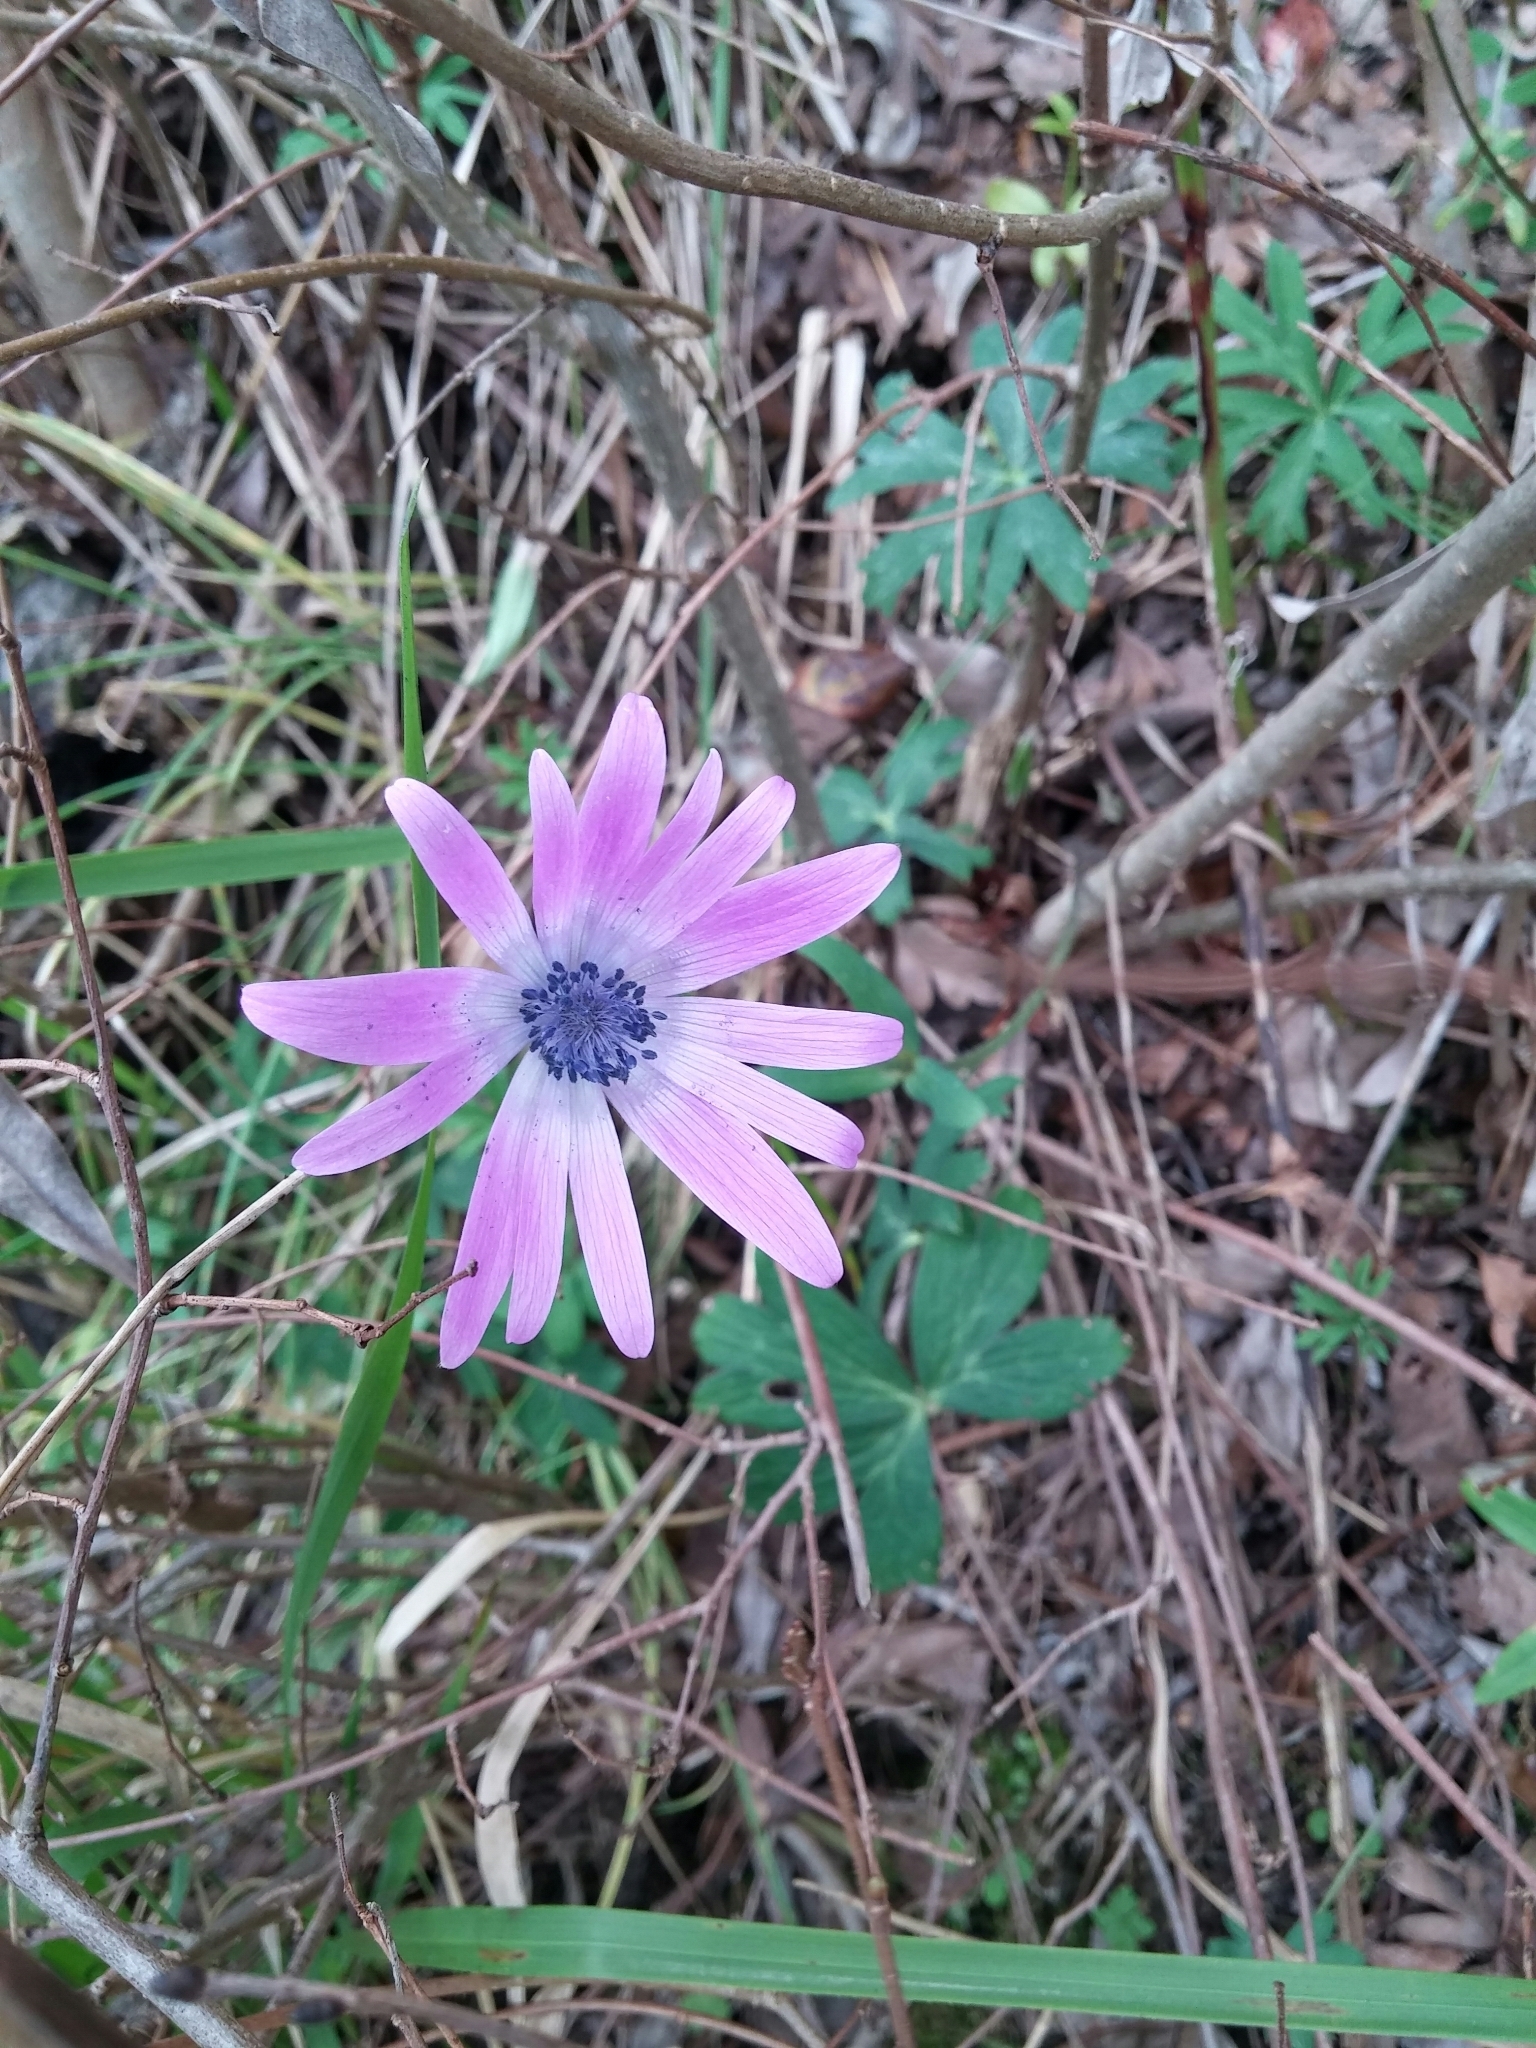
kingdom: Plantae
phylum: Tracheophyta
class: Magnoliopsida
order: Ranunculales
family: Ranunculaceae
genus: Anemone
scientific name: Anemone hortensis
